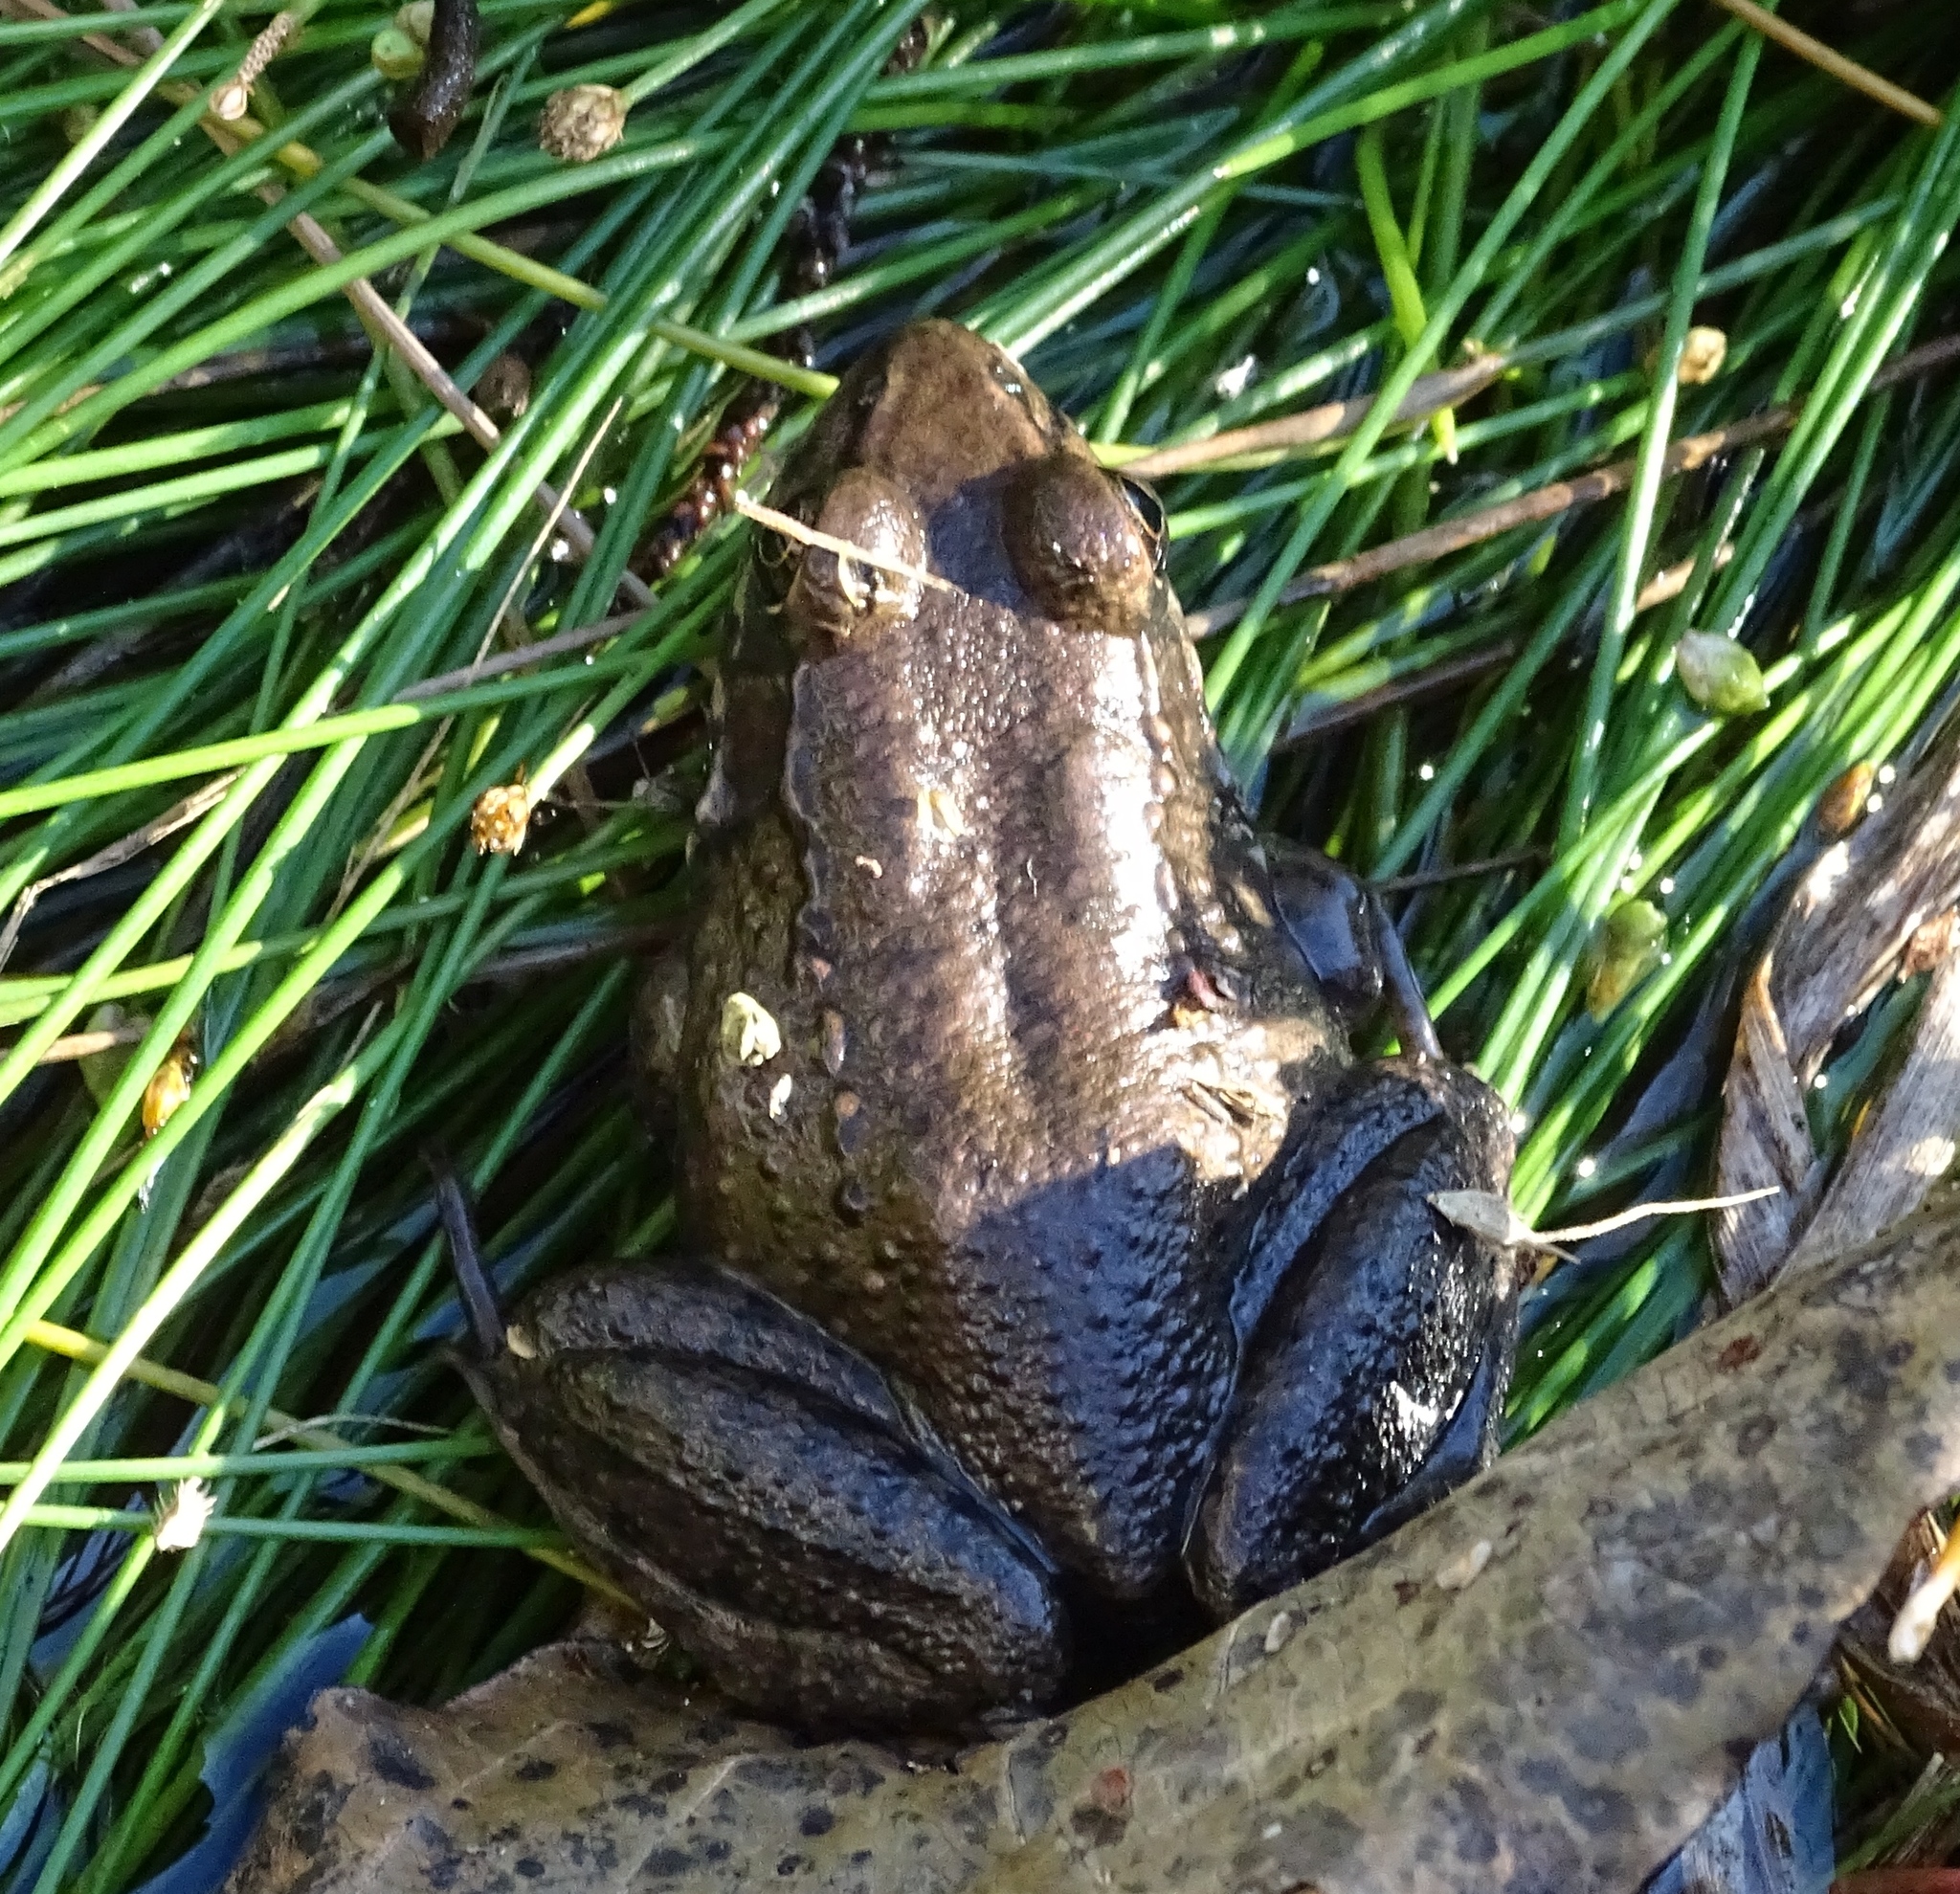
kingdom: Animalia
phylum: Chordata
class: Amphibia
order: Anura
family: Ranidae
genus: Lithobates
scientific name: Lithobates clamitans
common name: Green frog
